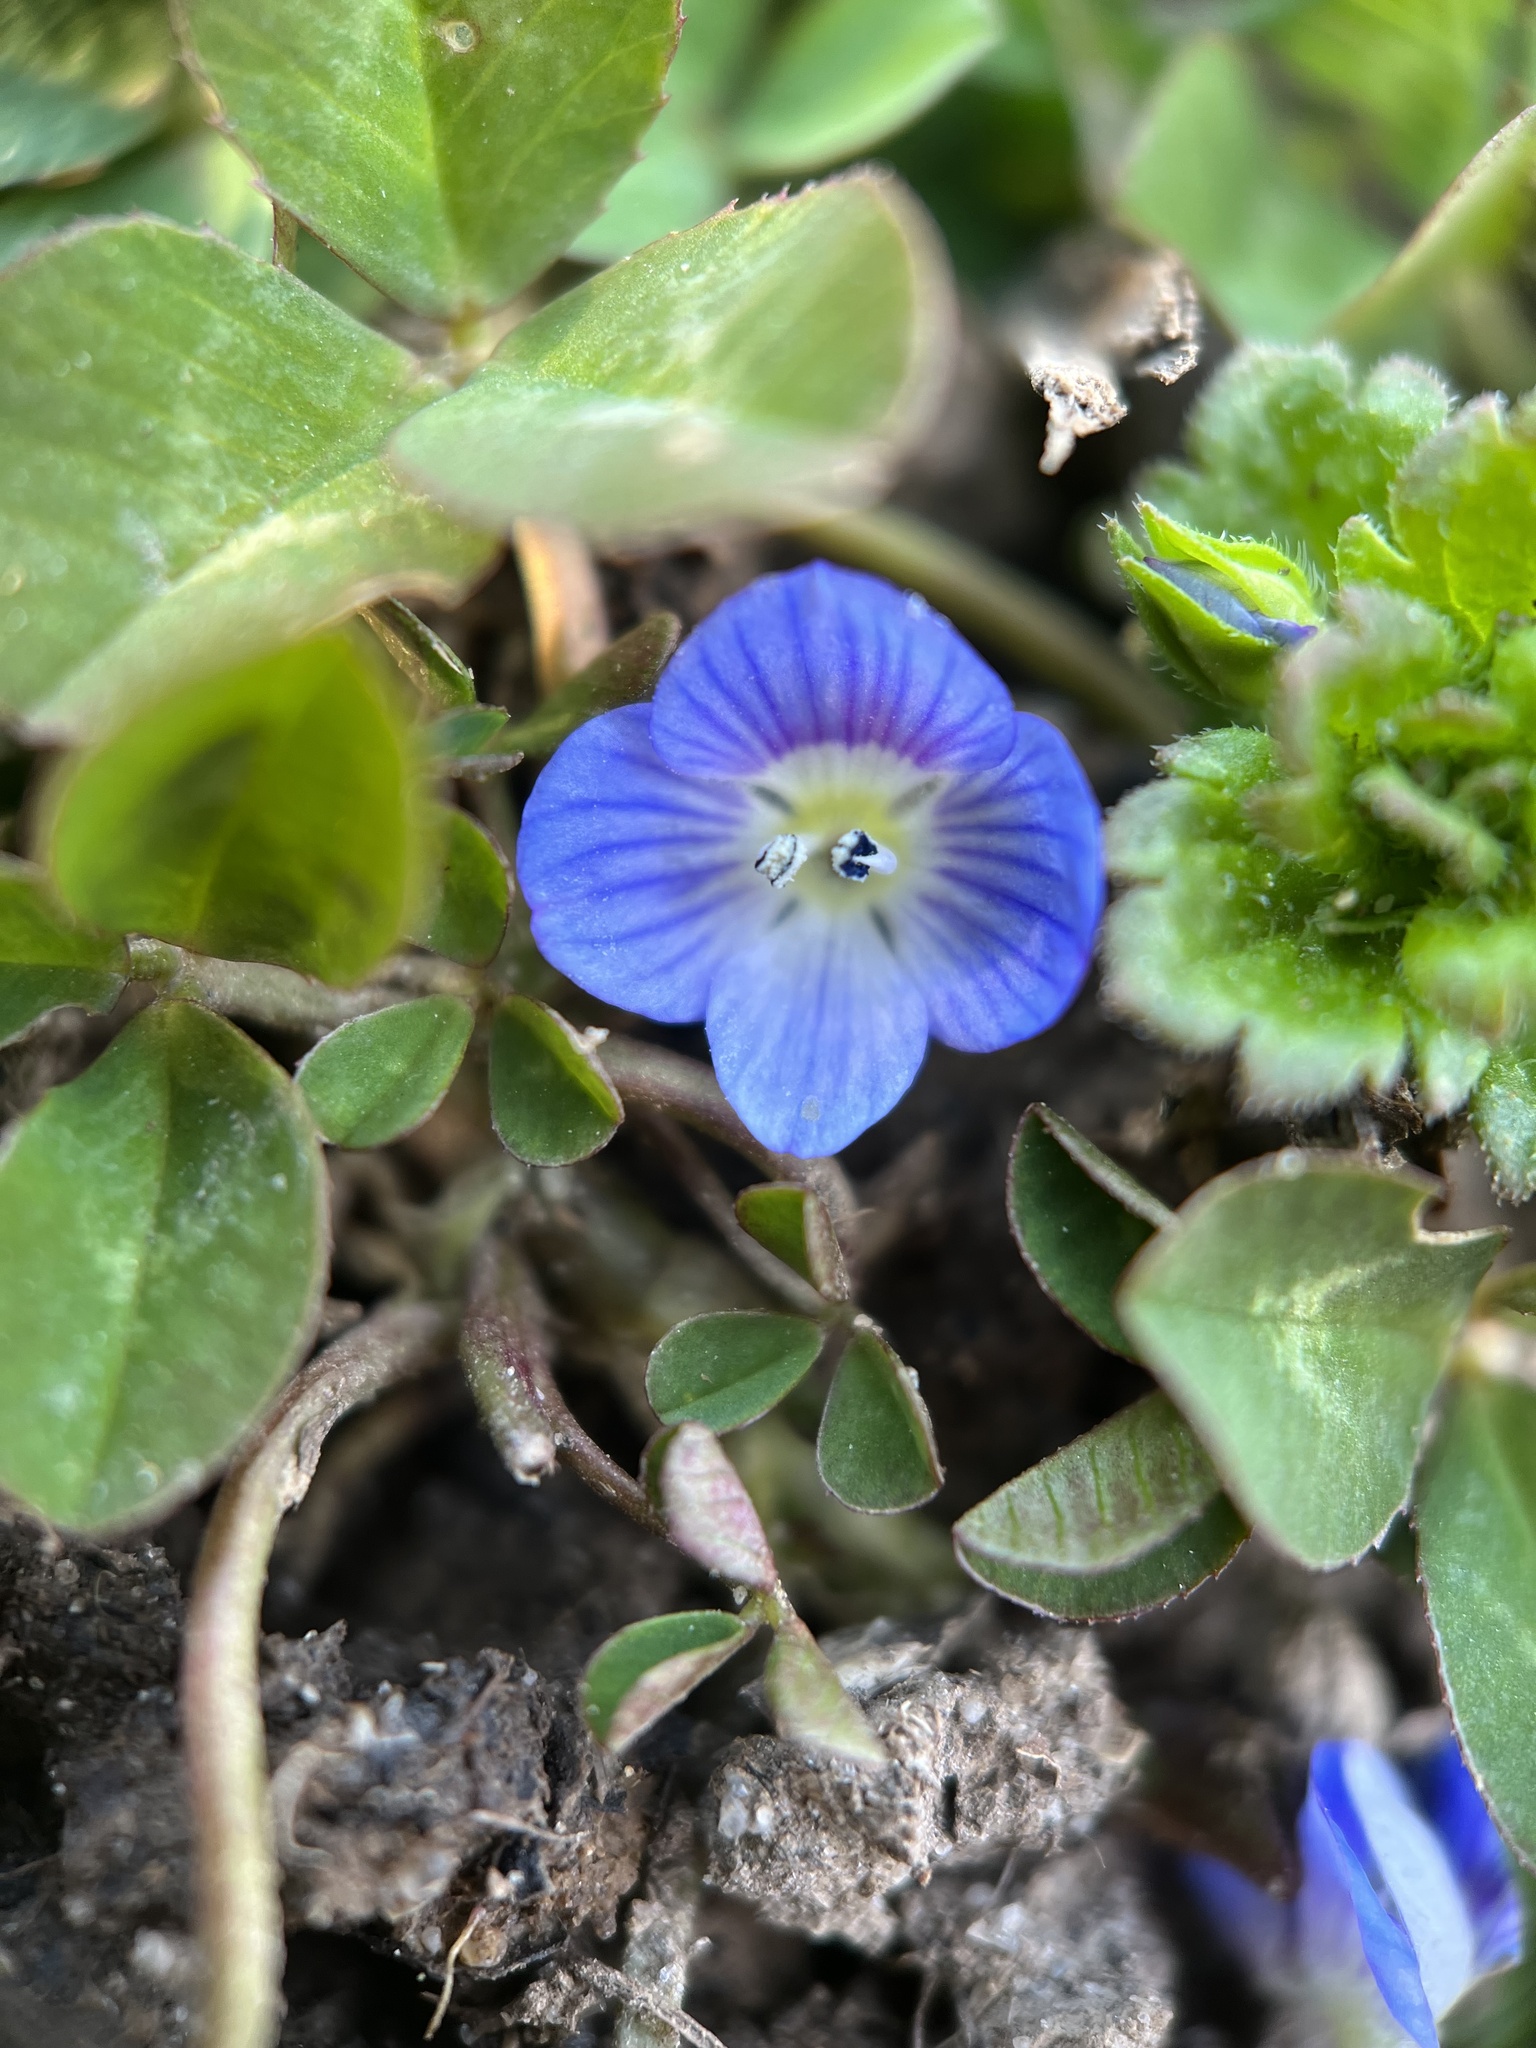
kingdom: Plantae
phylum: Tracheophyta
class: Magnoliopsida
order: Lamiales
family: Plantaginaceae
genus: Veronica
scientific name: Veronica persica
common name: Common field-speedwell
